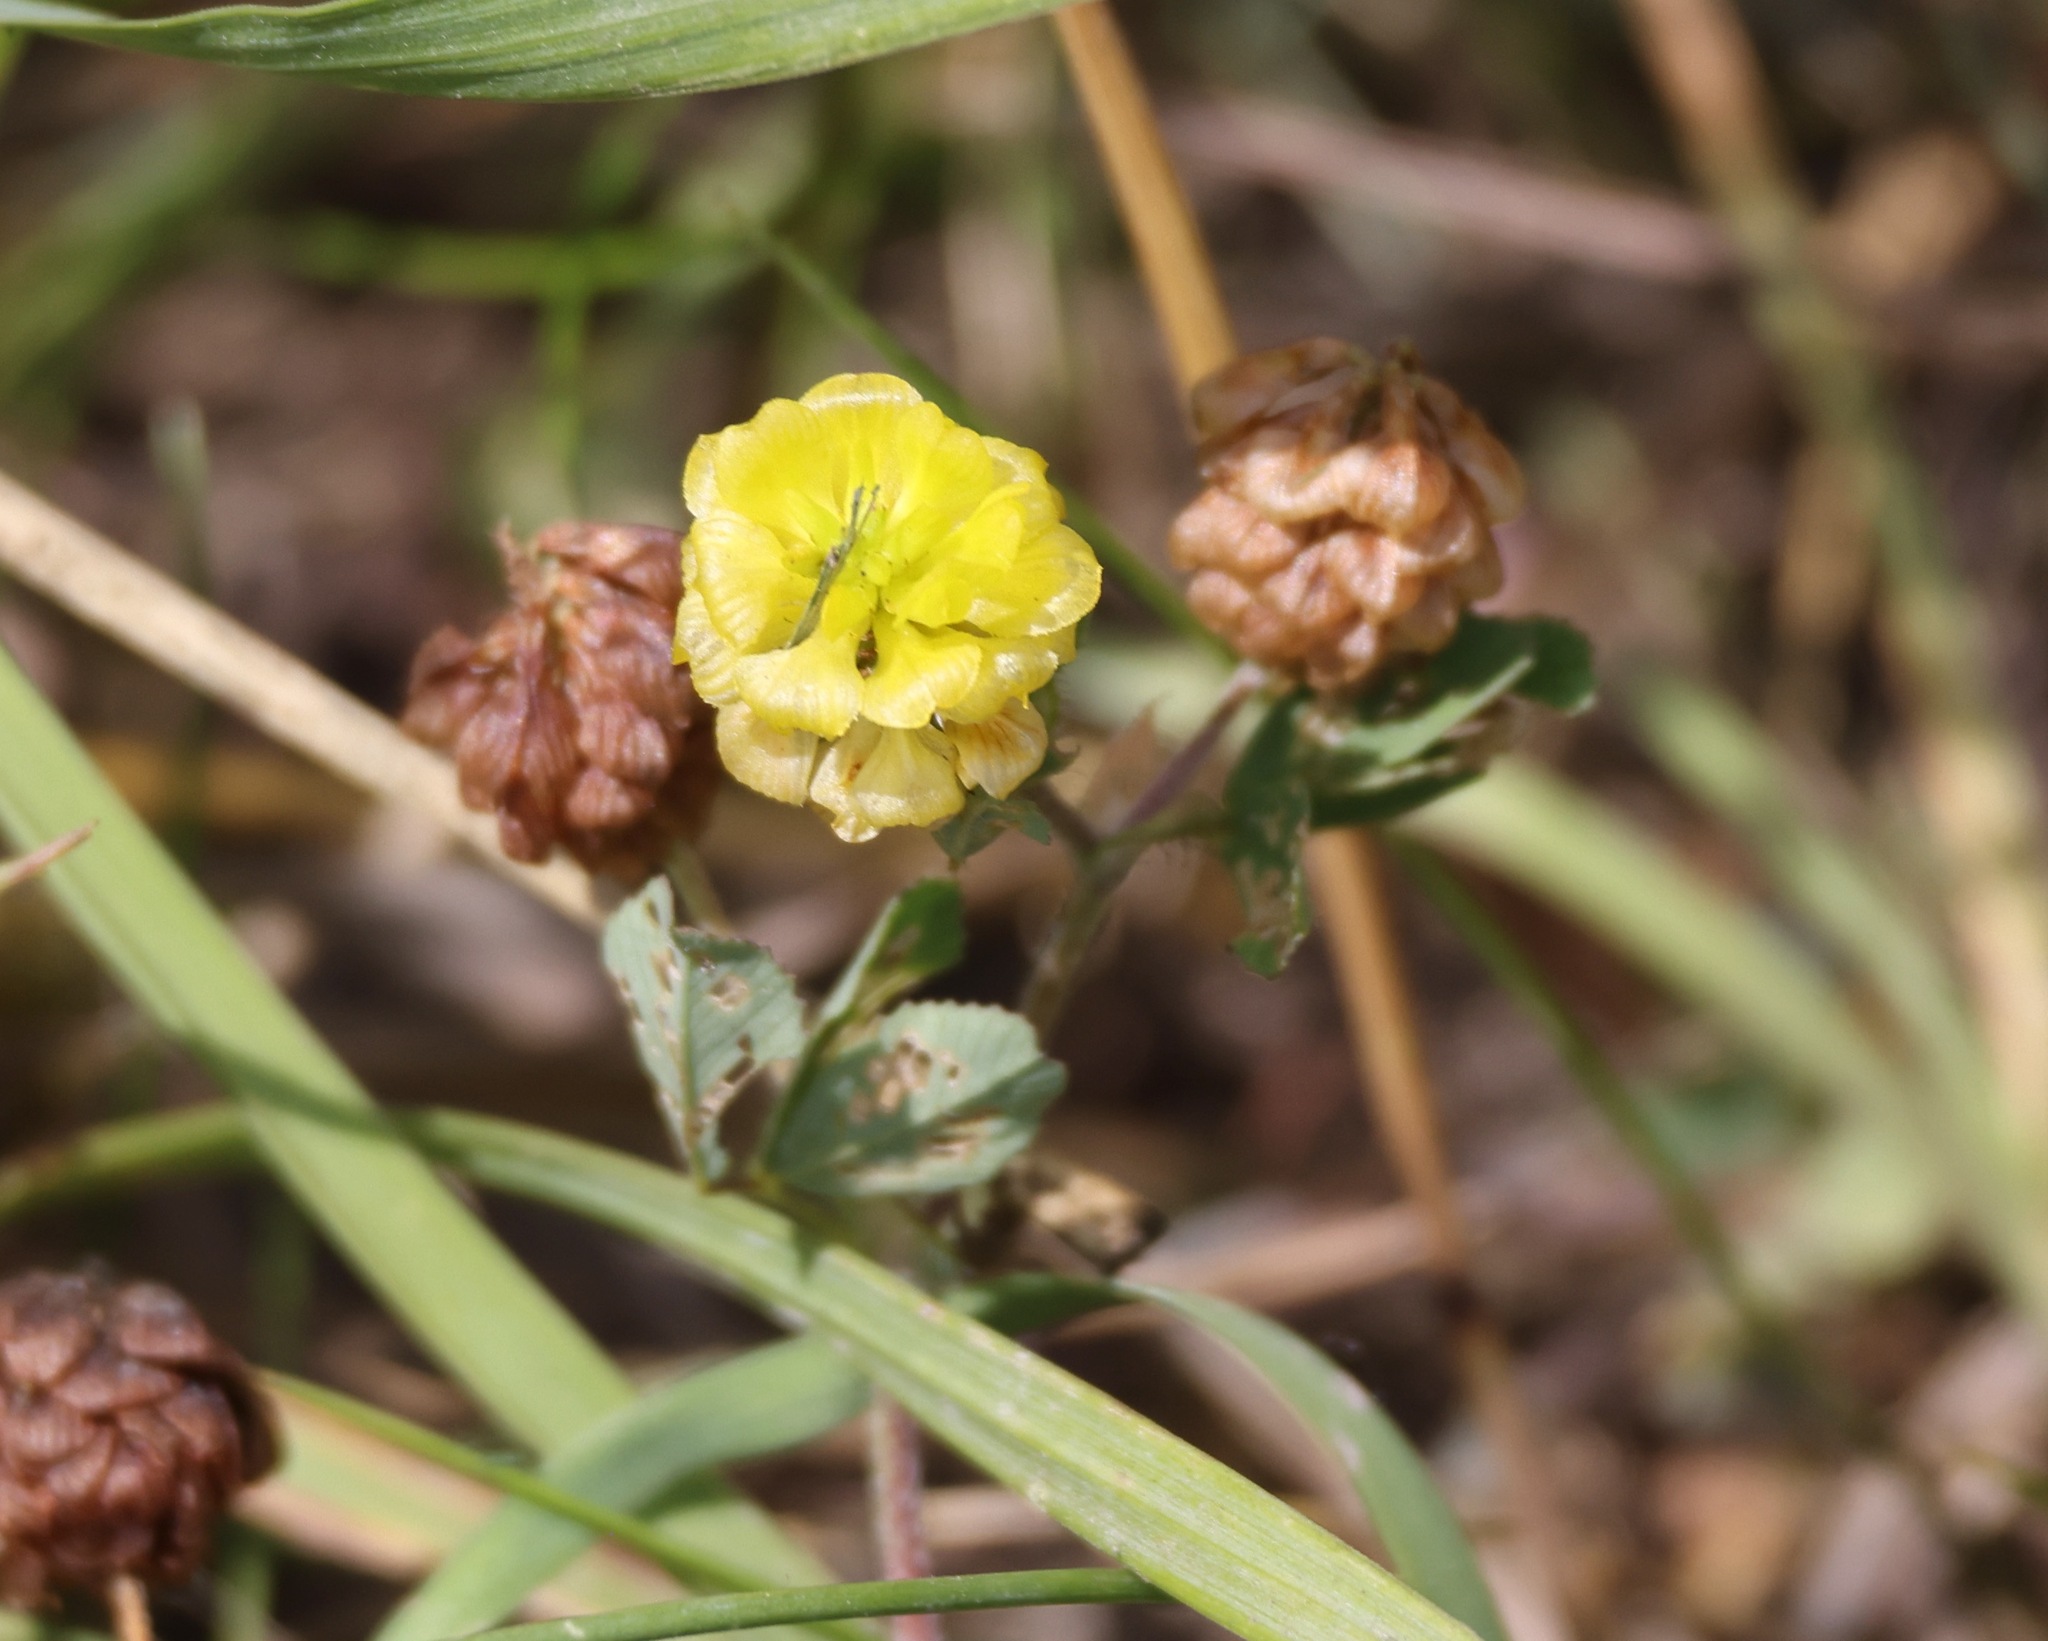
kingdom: Plantae
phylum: Tracheophyta
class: Magnoliopsida
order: Fabales
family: Fabaceae
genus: Trifolium
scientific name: Trifolium campestre
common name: Field clover
